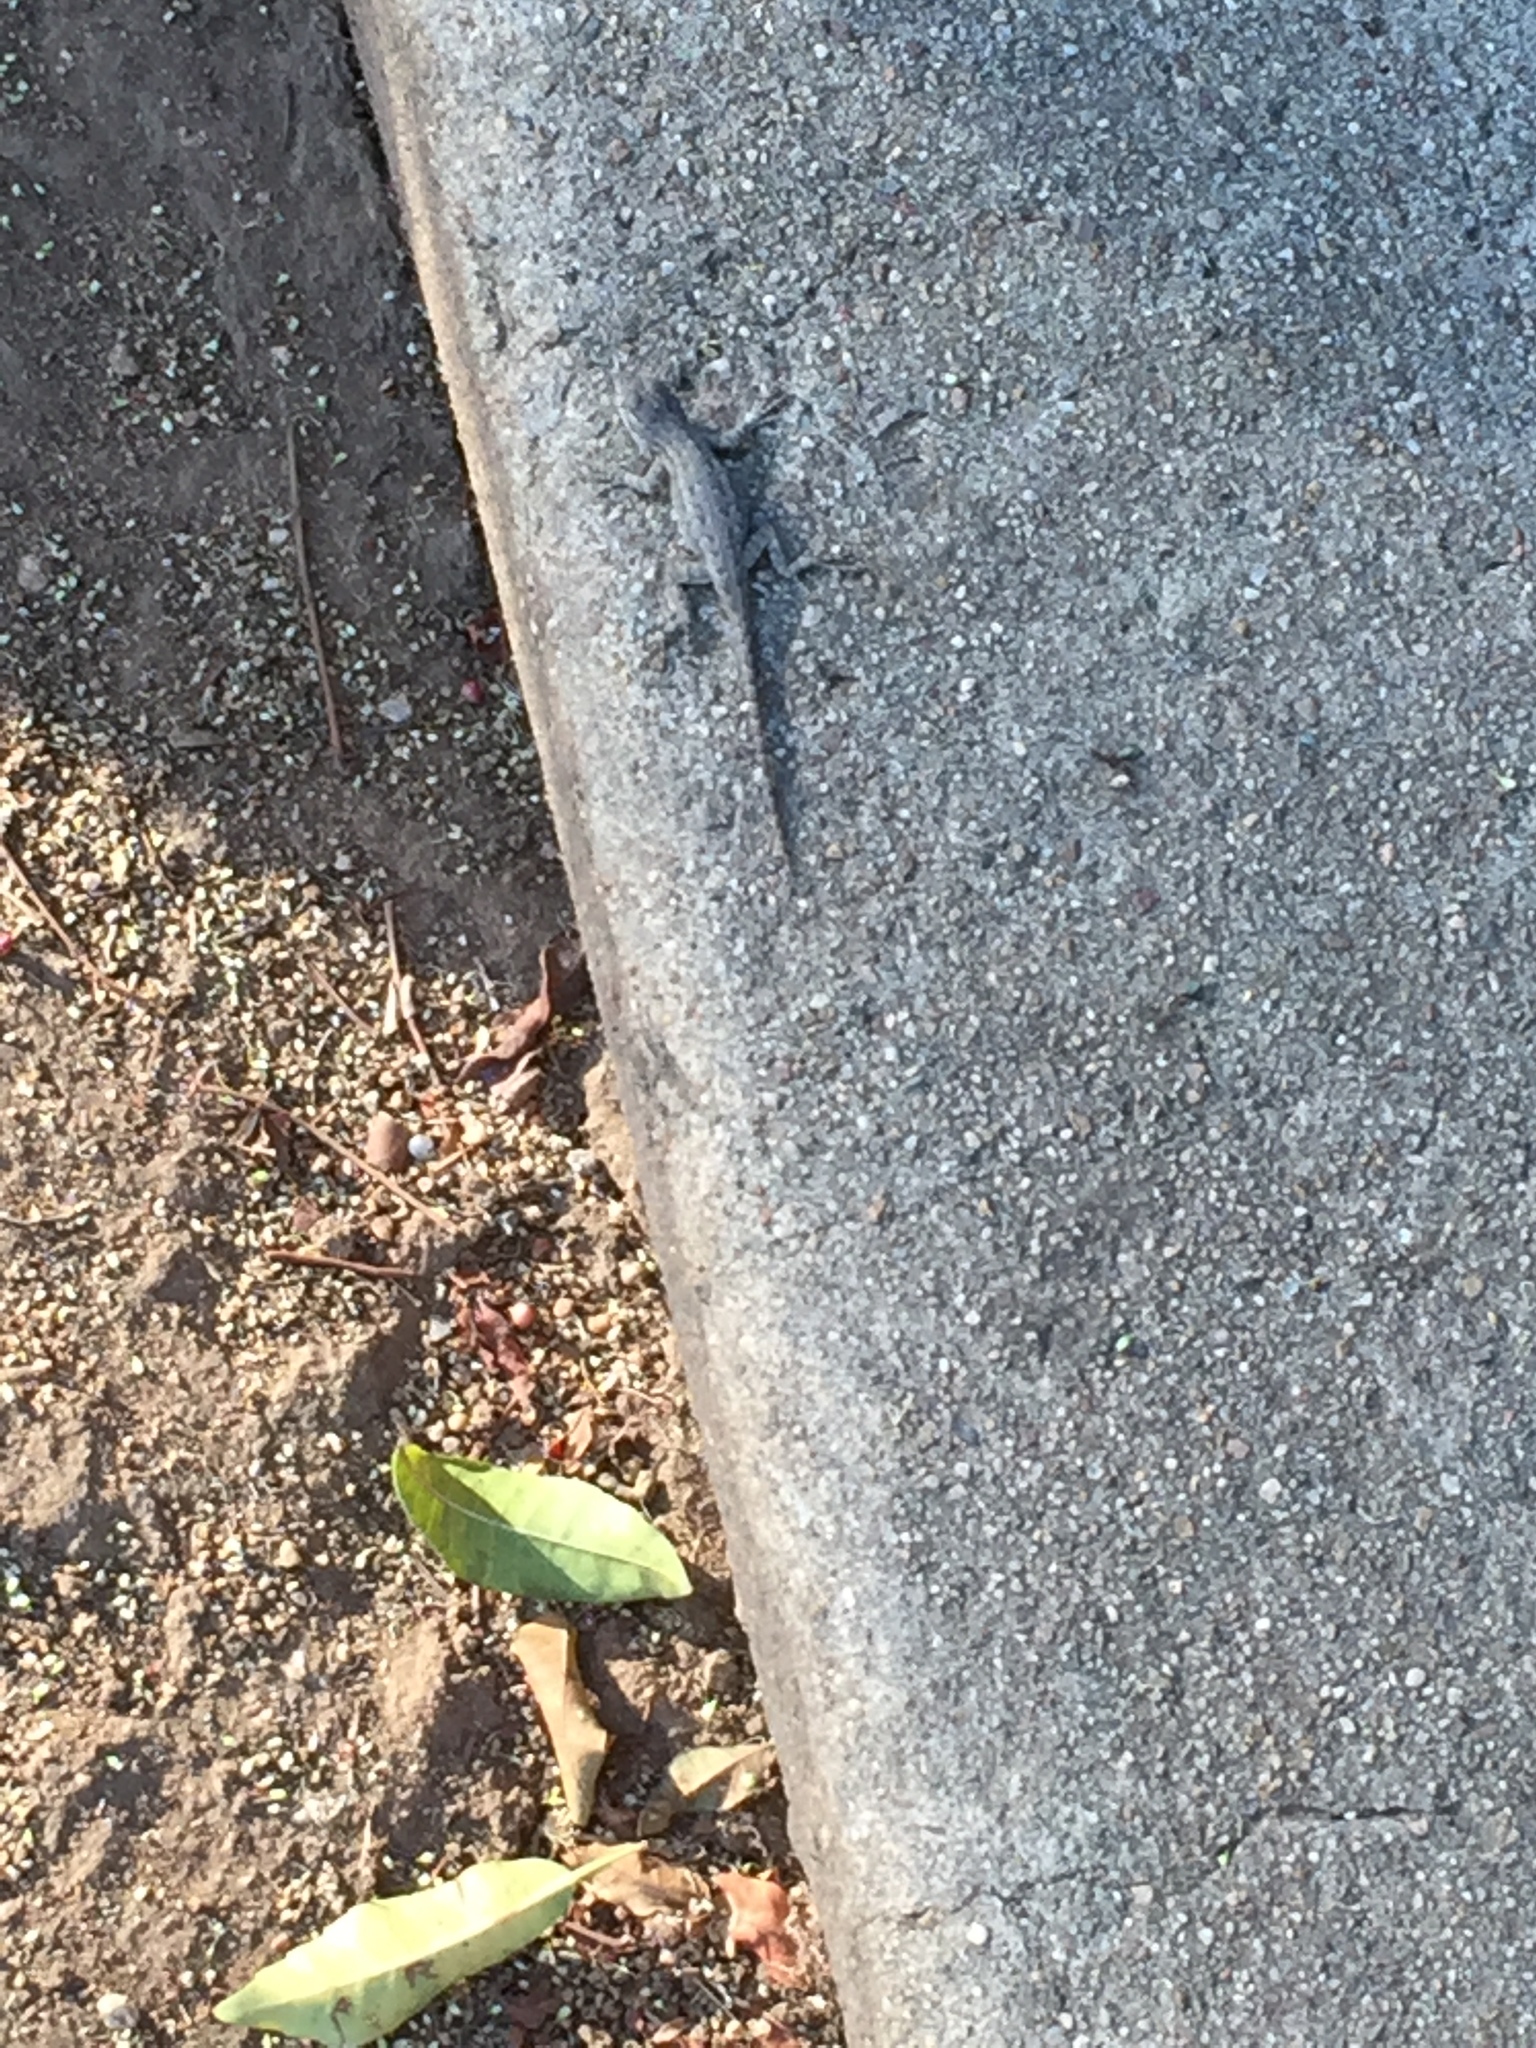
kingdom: Animalia
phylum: Chordata
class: Squamata
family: Phrynosomatidae
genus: Sceloporus
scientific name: Sceloporus occidentalis
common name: Western fence lizard
